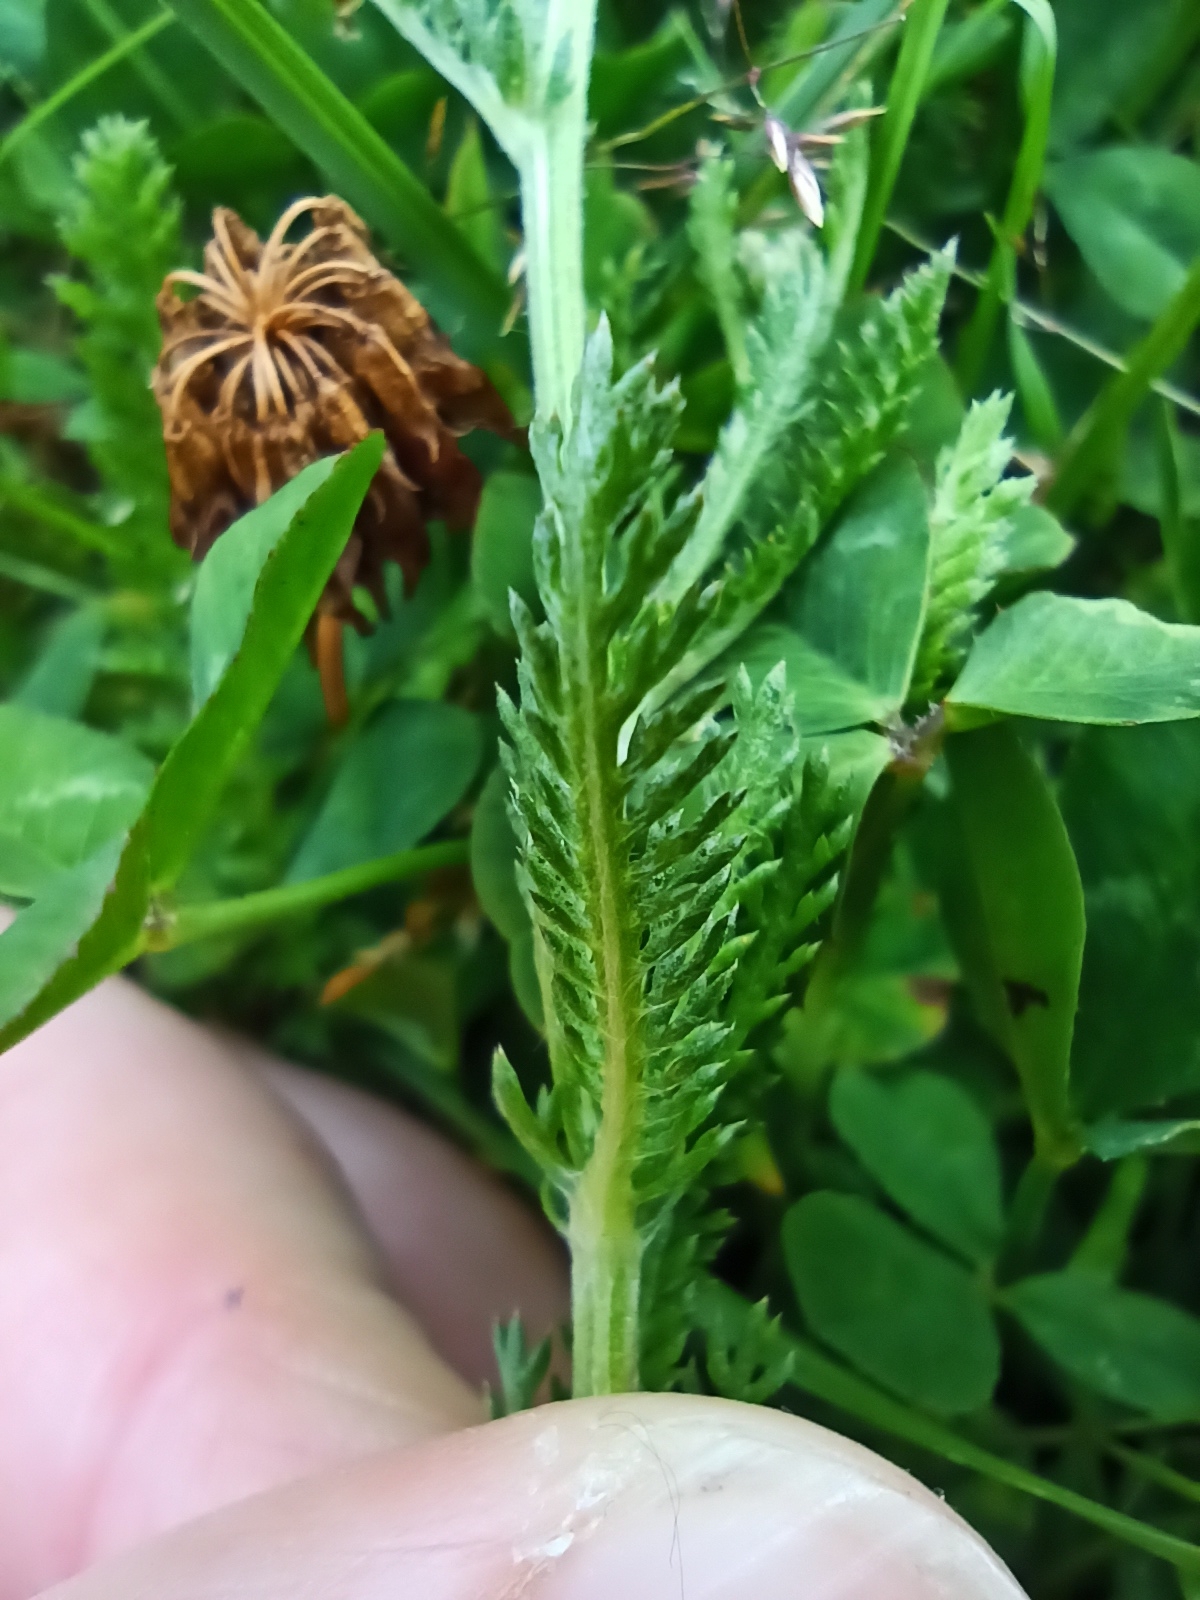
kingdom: Plantae
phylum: Tracheophyta
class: Magnoliopsida
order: Asterales
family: Asteraceae
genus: Achillea
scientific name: Achillea millefolium
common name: Yarrow
